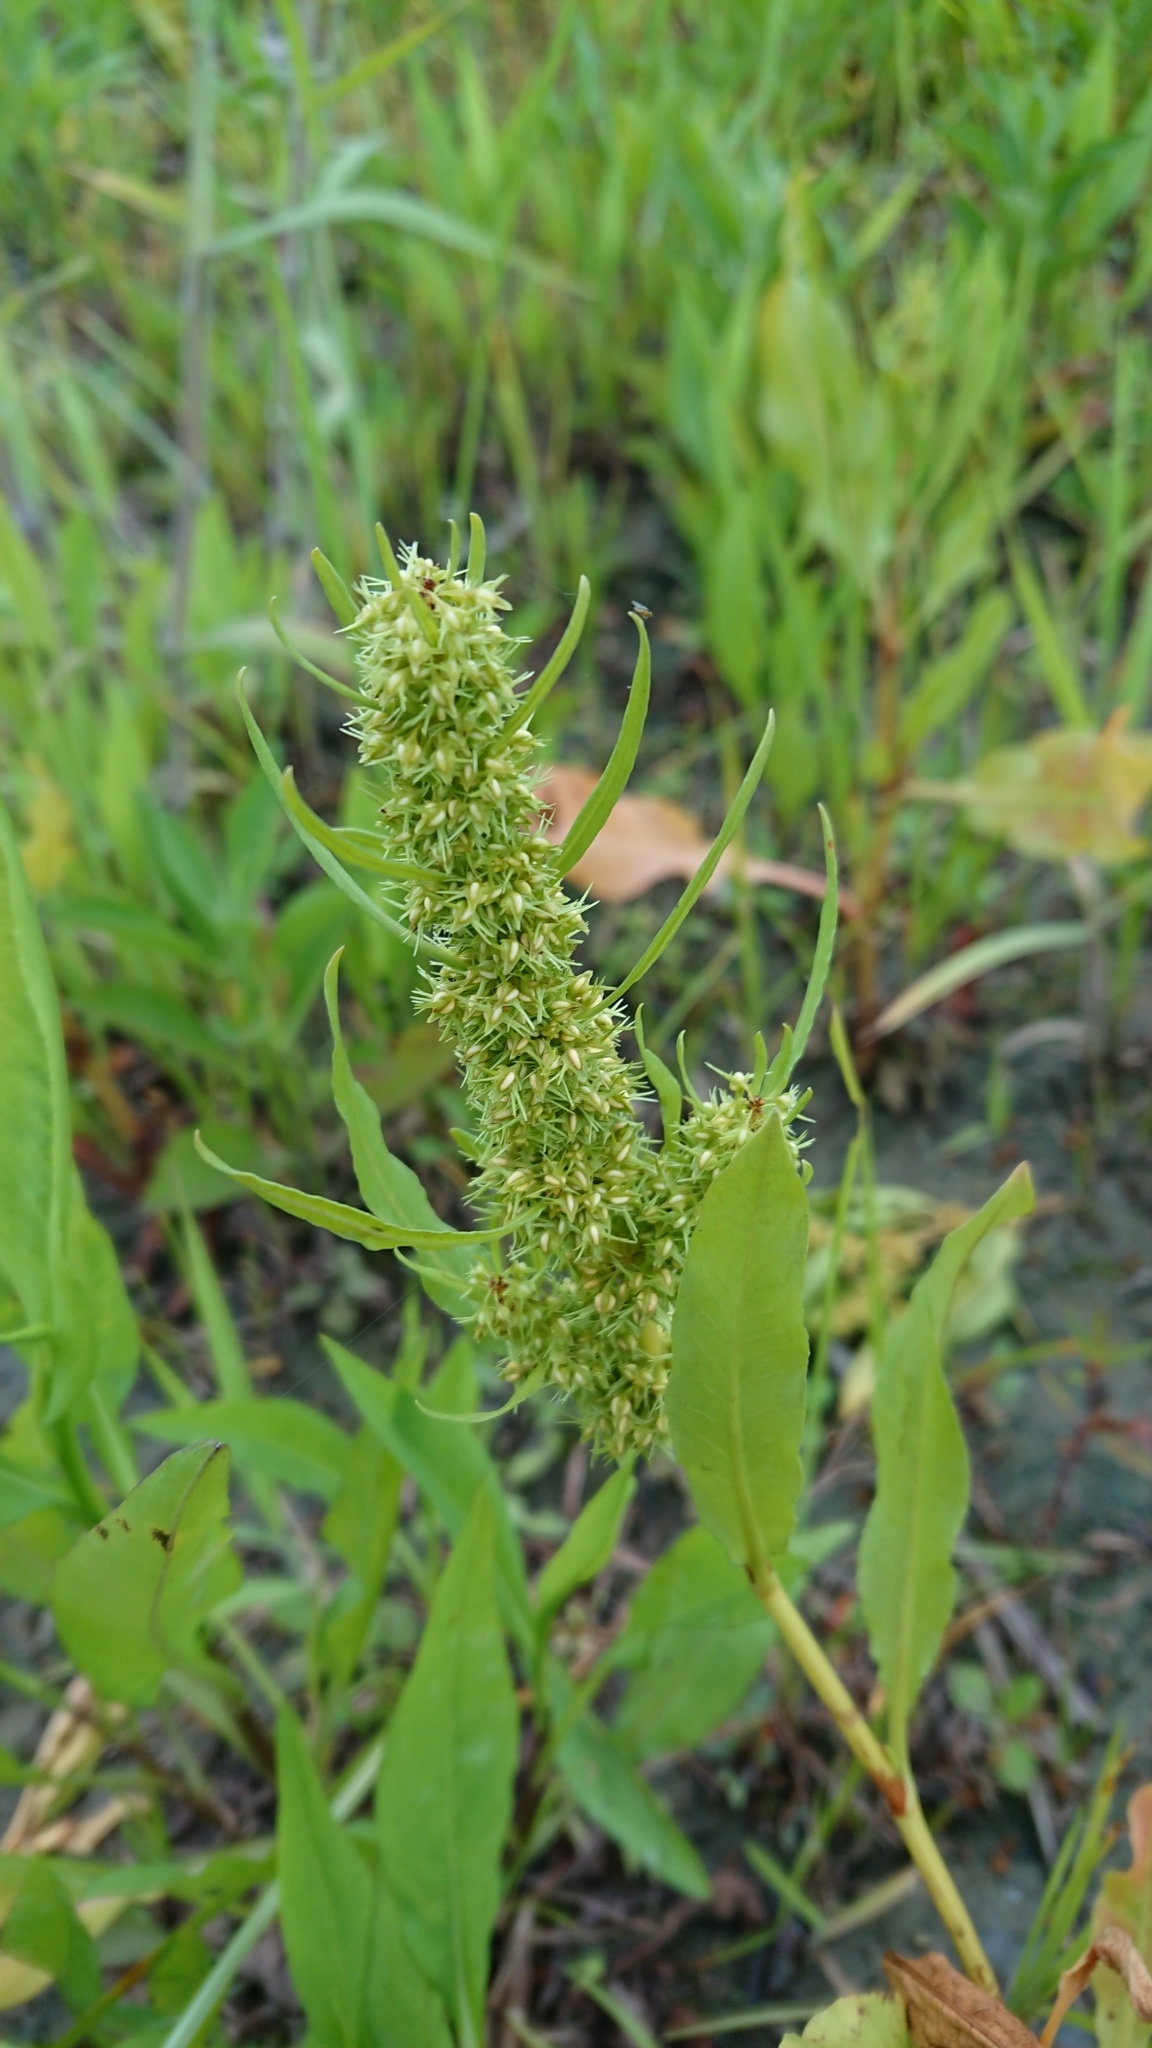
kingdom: Plantae
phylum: Tracheophyta
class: Magnoliopsida
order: Caryophyllales
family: Polygonaceae
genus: Rumex
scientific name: Rumex dentatus
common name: Toothed dock
